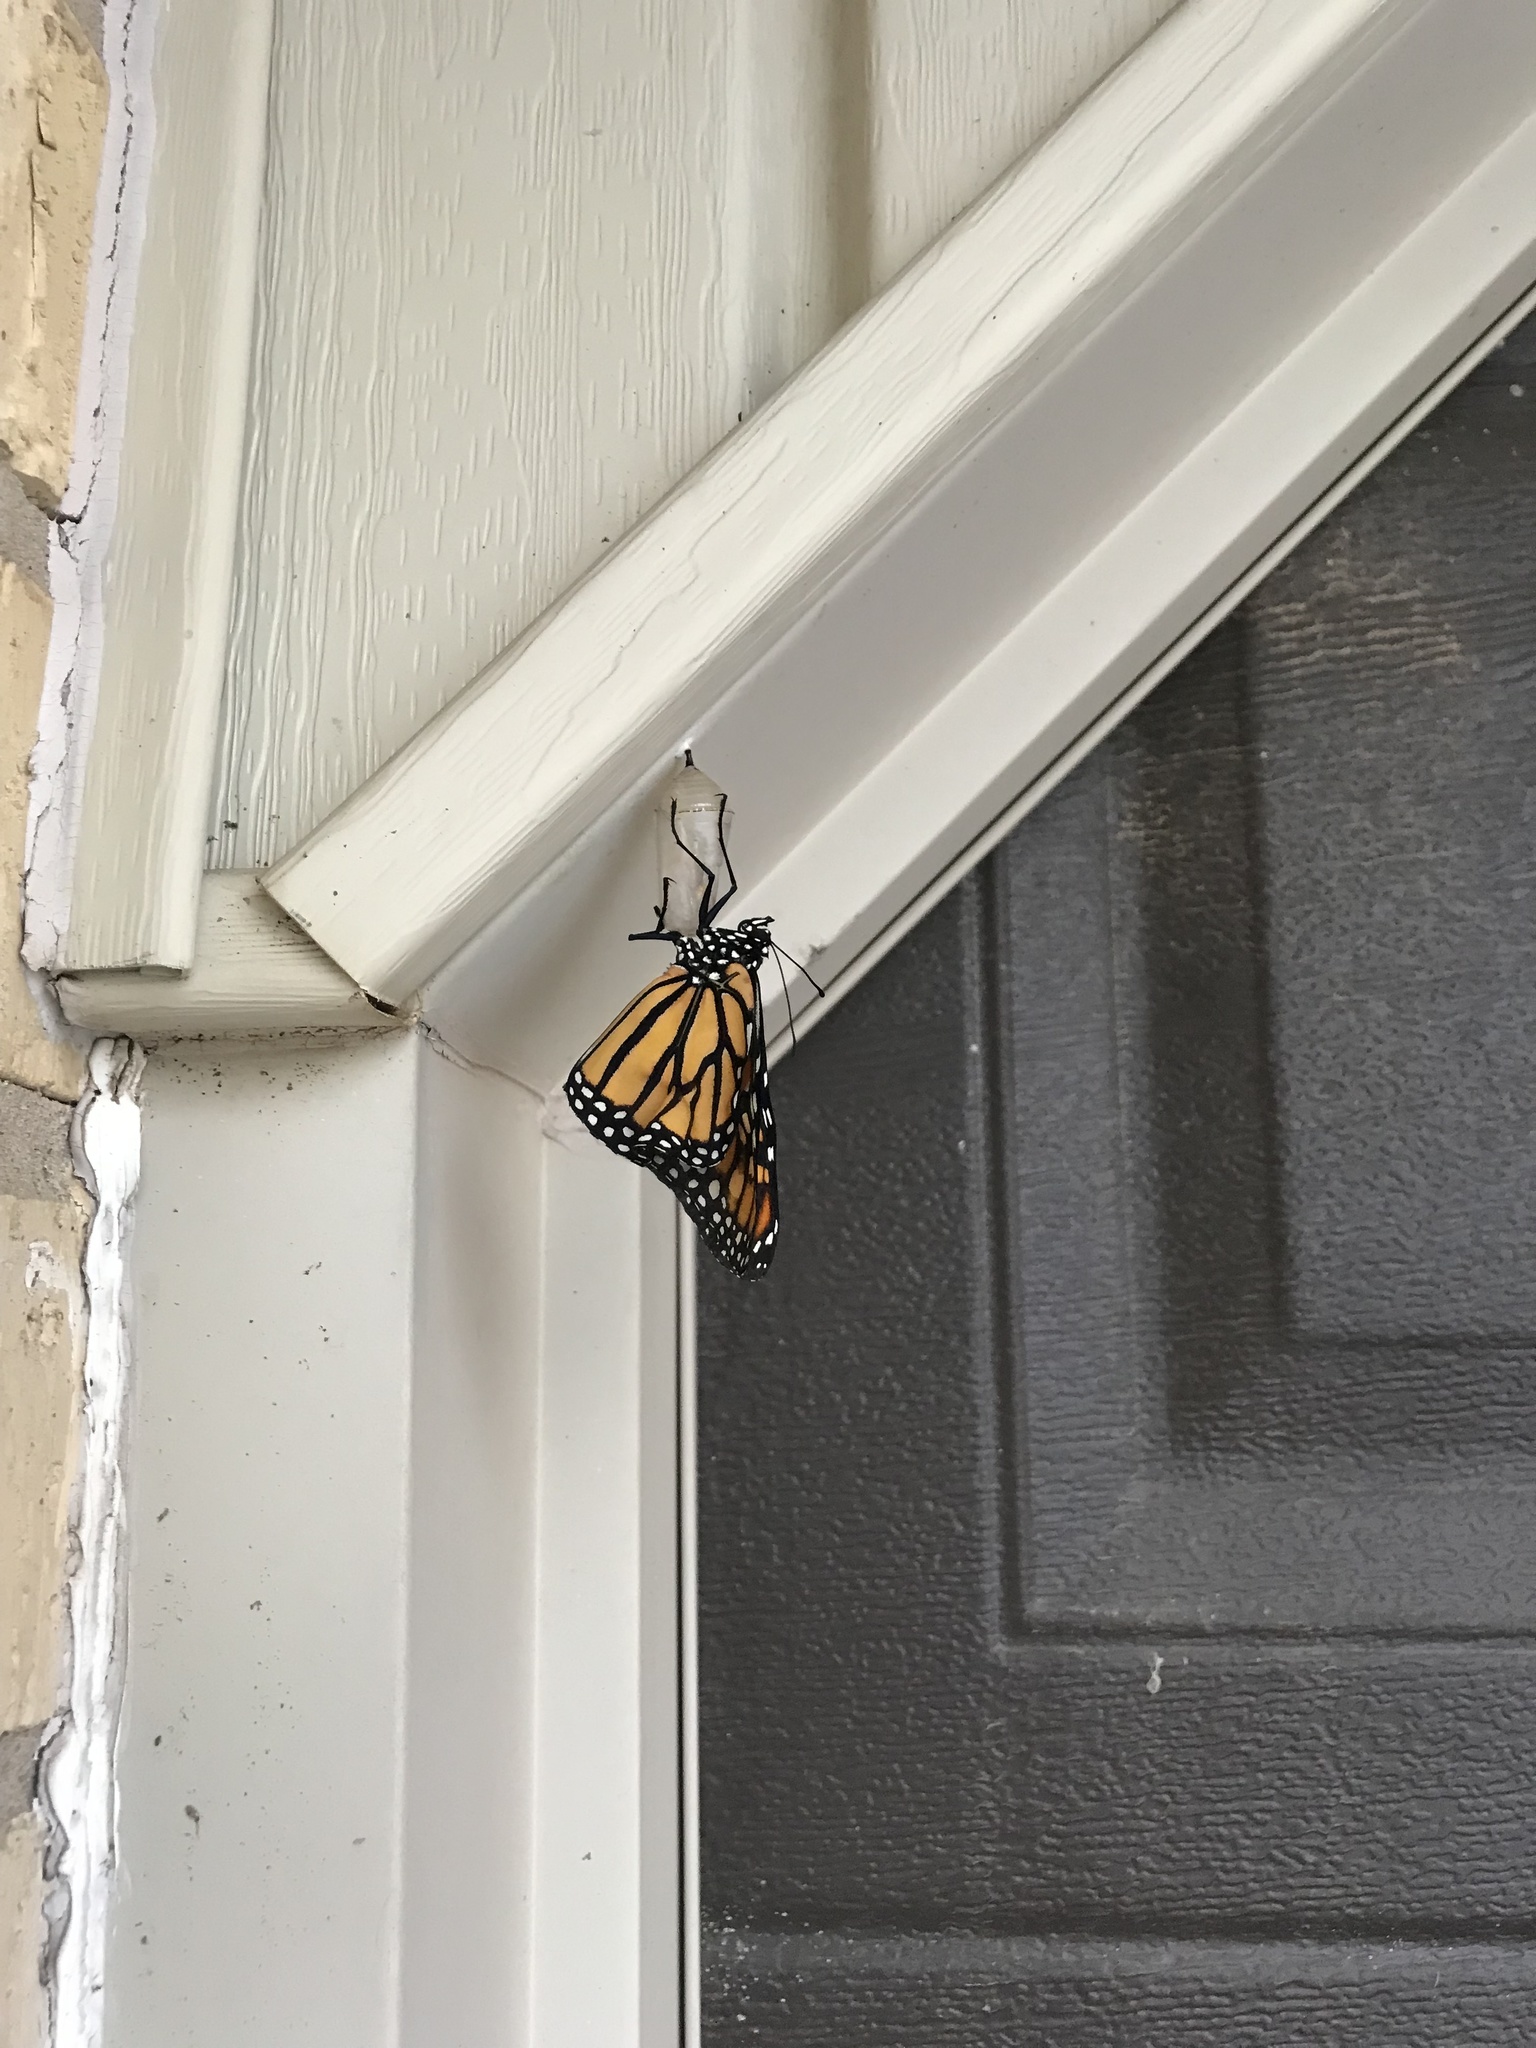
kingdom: Animalia
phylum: Arthropoda
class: Insecta
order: Lepidoptera
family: Nymphalidae
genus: Danaus
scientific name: Danaus plexippus
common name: Monarch
